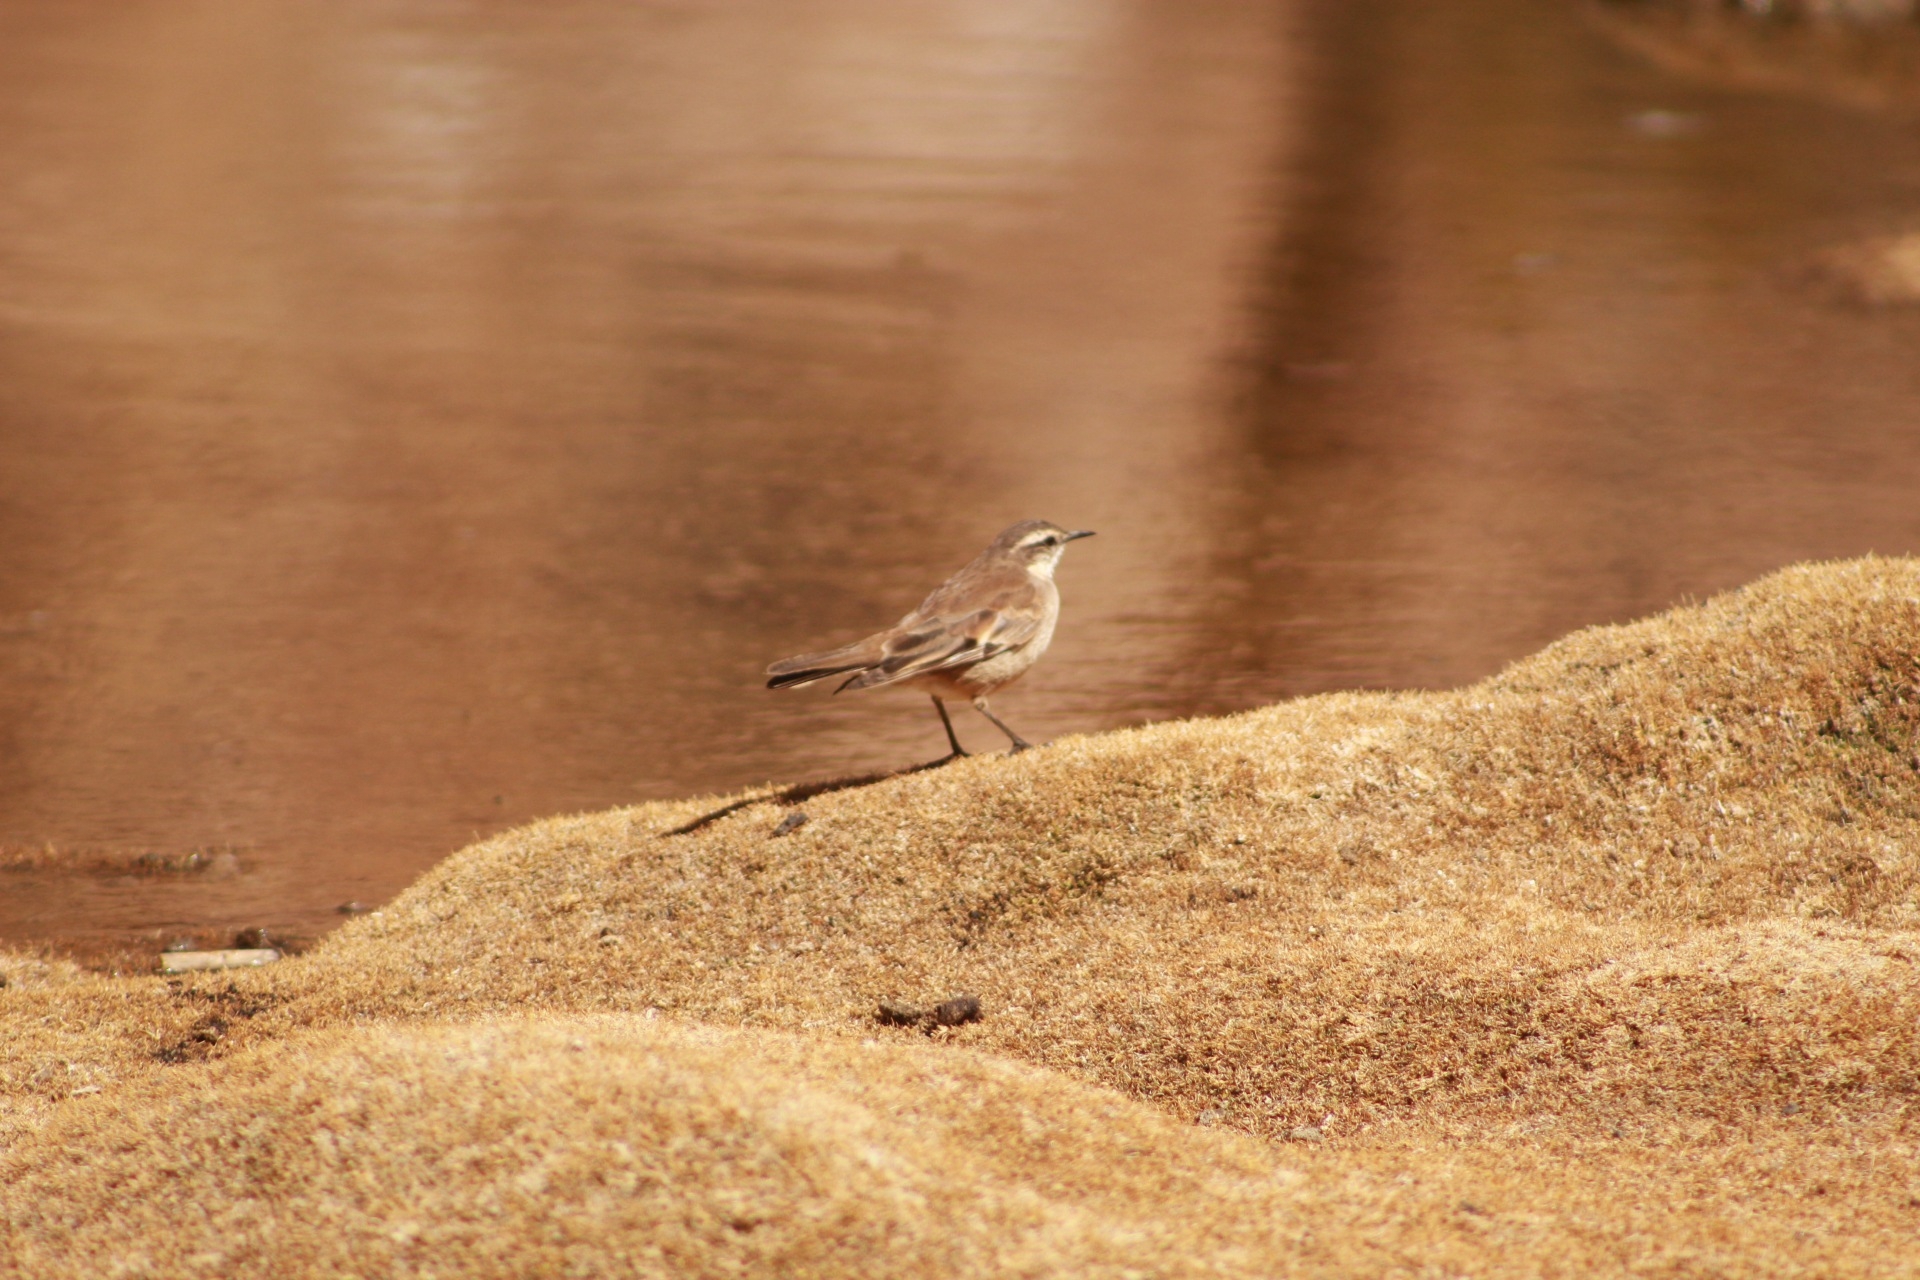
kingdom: Animalia
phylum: Chordata
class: Aves
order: Passeriformes
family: Furnariidae
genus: Cinclodes
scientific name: Cinclodes fuscus
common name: Buff-winged cinclodes
